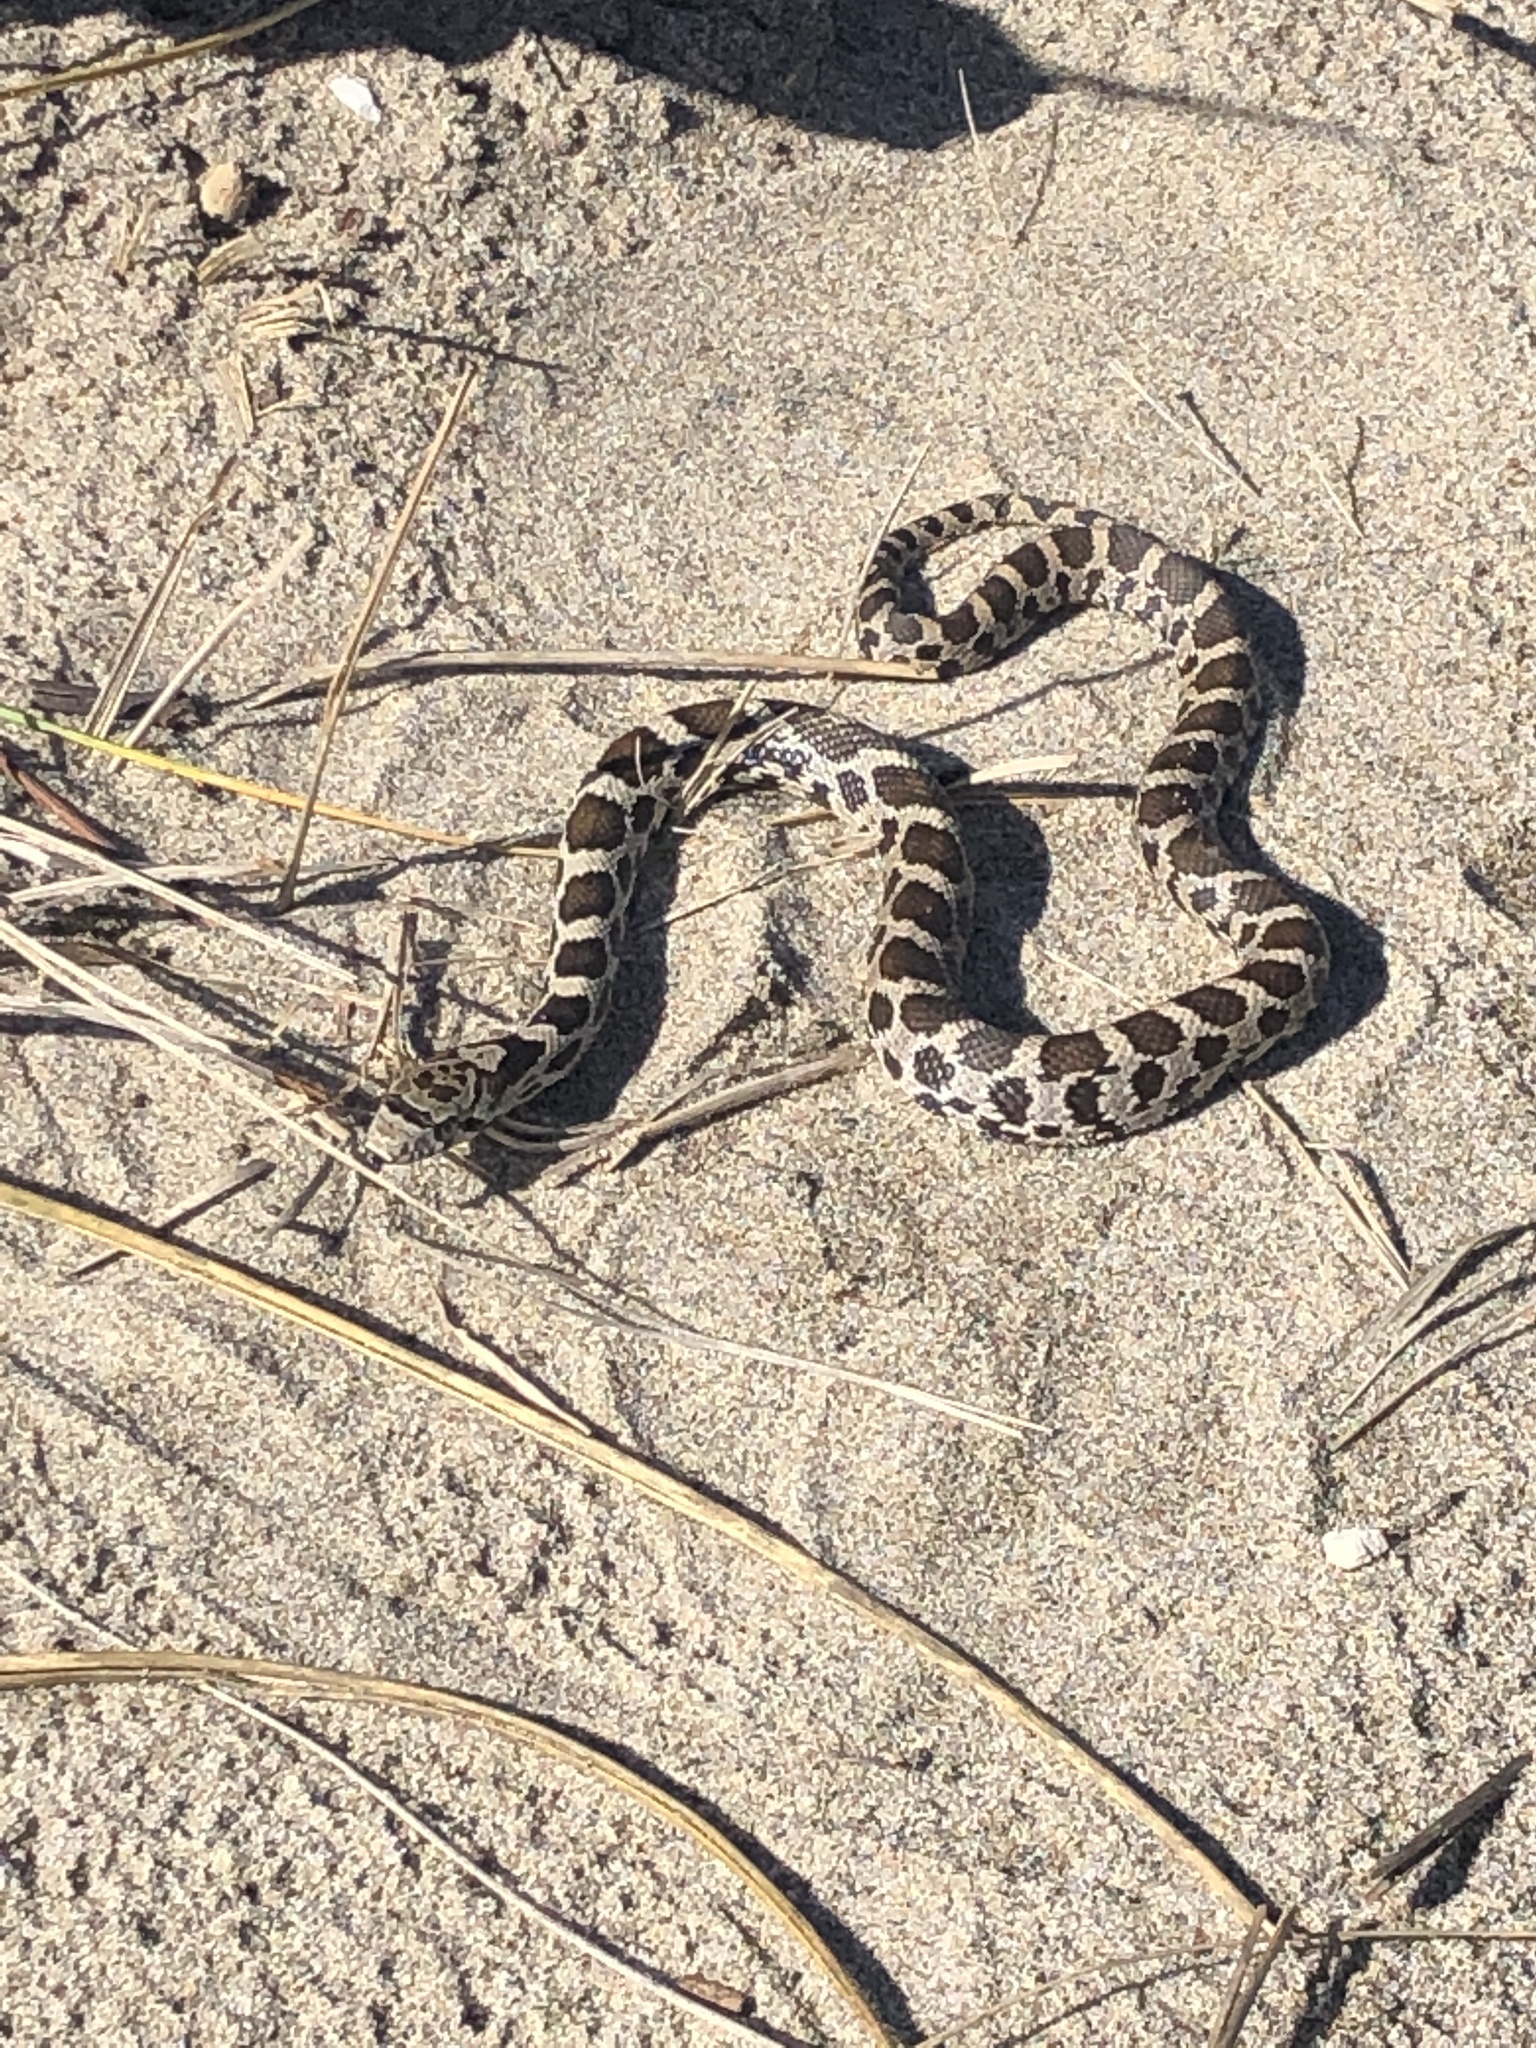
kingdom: Animalia
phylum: Chordata
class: Squamata
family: Colubridae
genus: Pantherophis
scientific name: Pantherophis vulpinus
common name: Eastern fox snake
